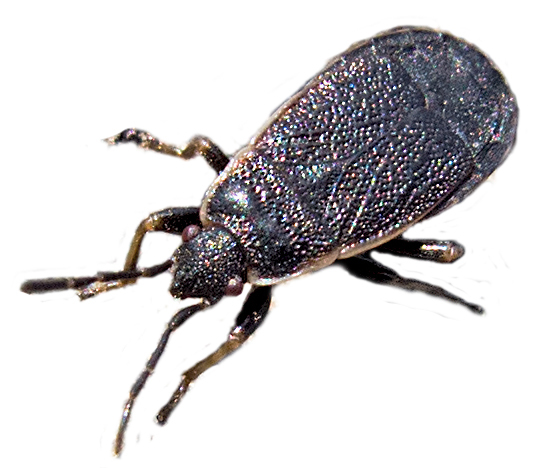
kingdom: Animalia
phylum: Arthropoda
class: Insecta
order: Hemiptera
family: Pyrrhocoridae
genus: Pyrrhocoris
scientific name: Pyrrhocoris marginatus
